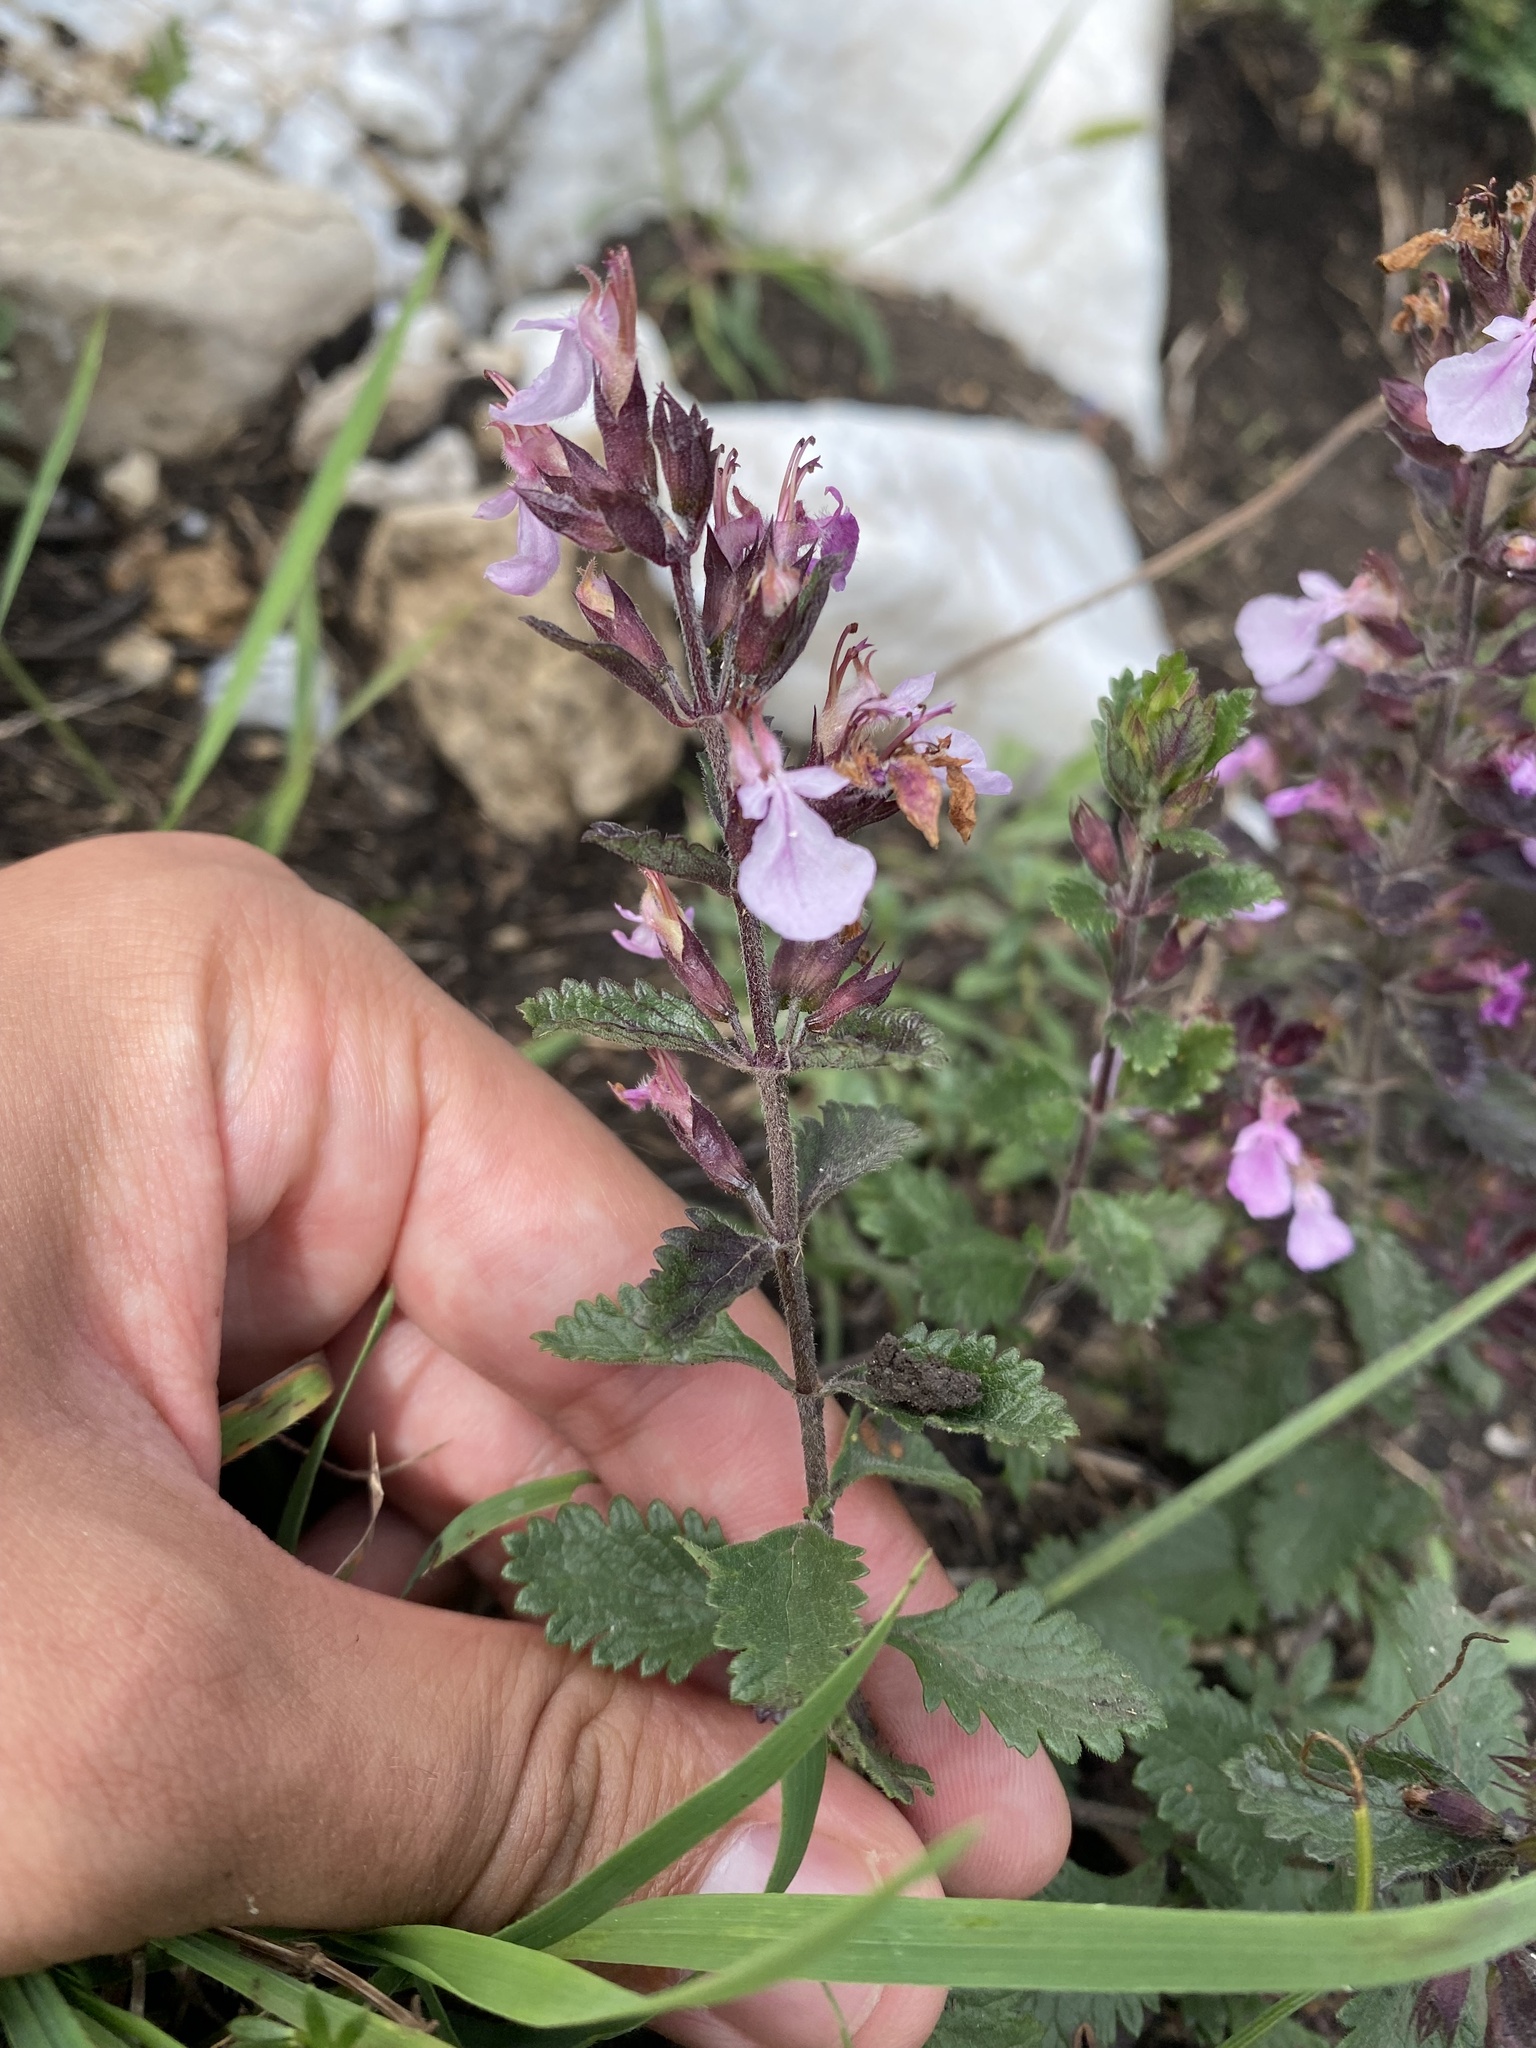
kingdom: Plantae
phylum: Tracheophyta
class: Magnoliopsida
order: Lamiales
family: Lamiaceae
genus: Teucrium
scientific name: Teucrium chamaedrys
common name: Wall germander
